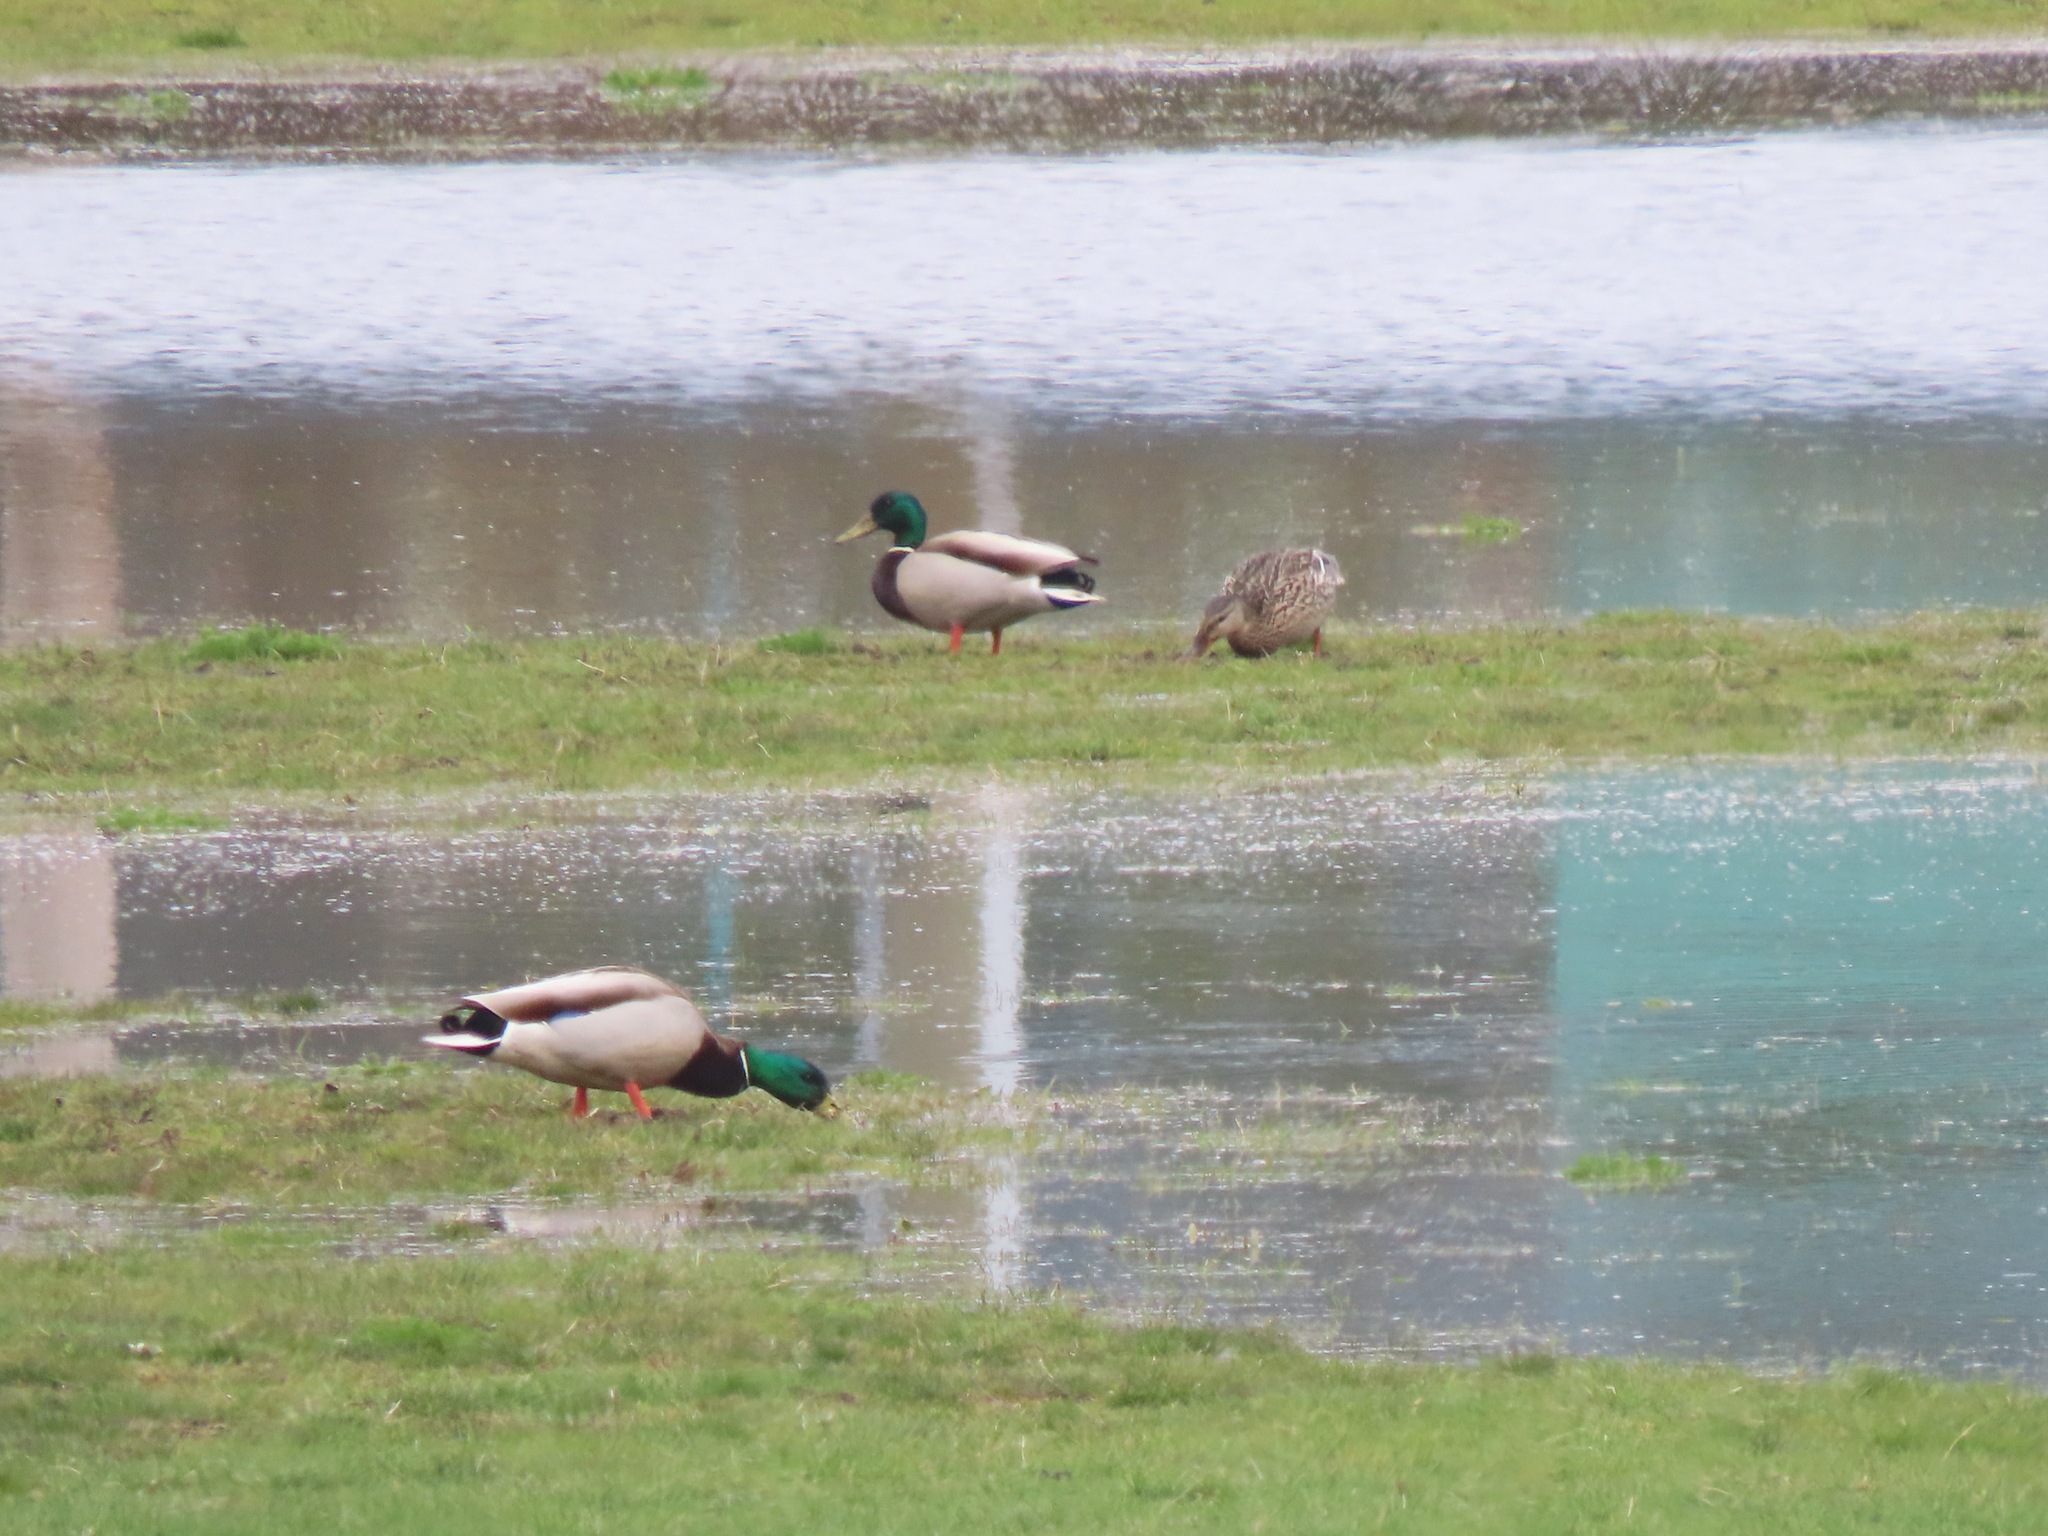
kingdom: Animalia
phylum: Chordata
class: Aves
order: Anseriformes
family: Anatidae
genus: Anas
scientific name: Anas platyrhynchos
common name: Mallard
